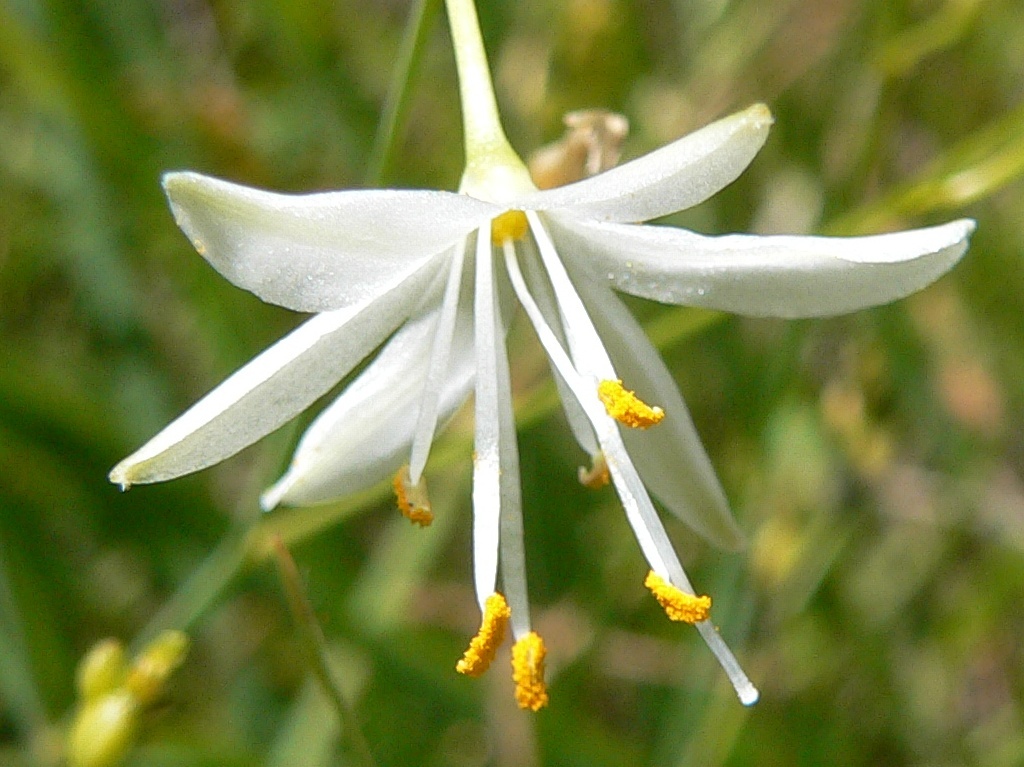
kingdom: Plantae
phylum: Tracheophyta
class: Liliopsida
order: Asparagales
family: Asparagaceae
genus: Anthericum
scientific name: Anthericum ramosum
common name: Branched st. bernard's-lily
